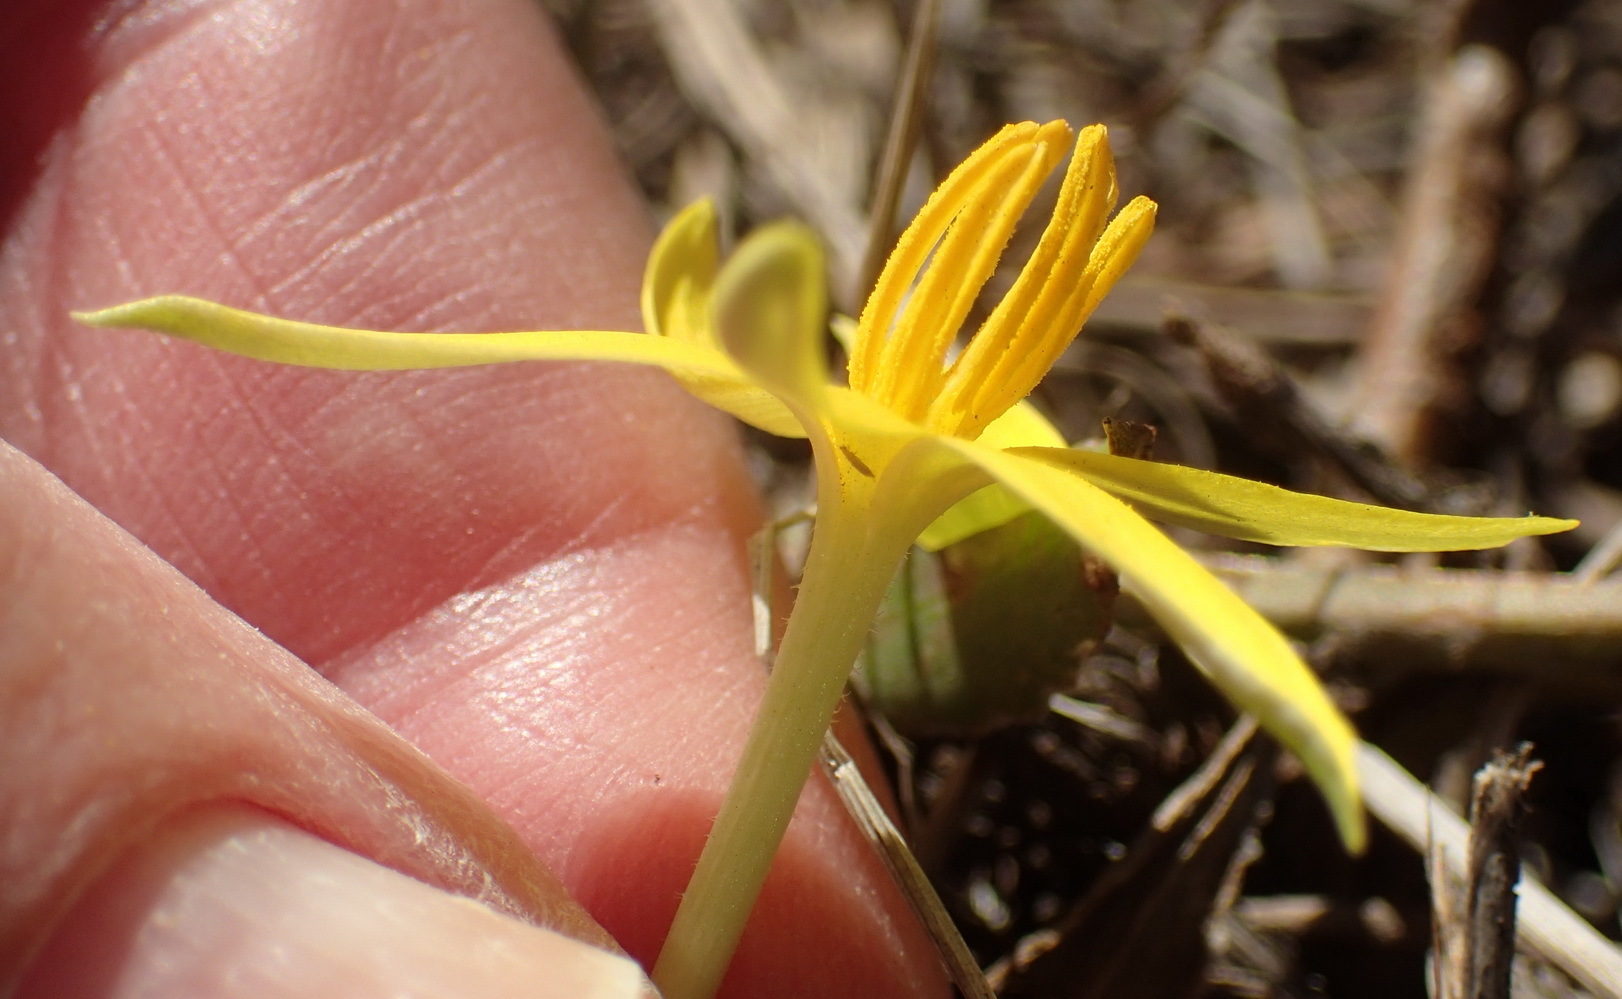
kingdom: Plantae
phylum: Tracheophyta
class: Liliopsida
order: Asparagales
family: Hypoxidaceae
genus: Empodium
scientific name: Empodium plicatum
